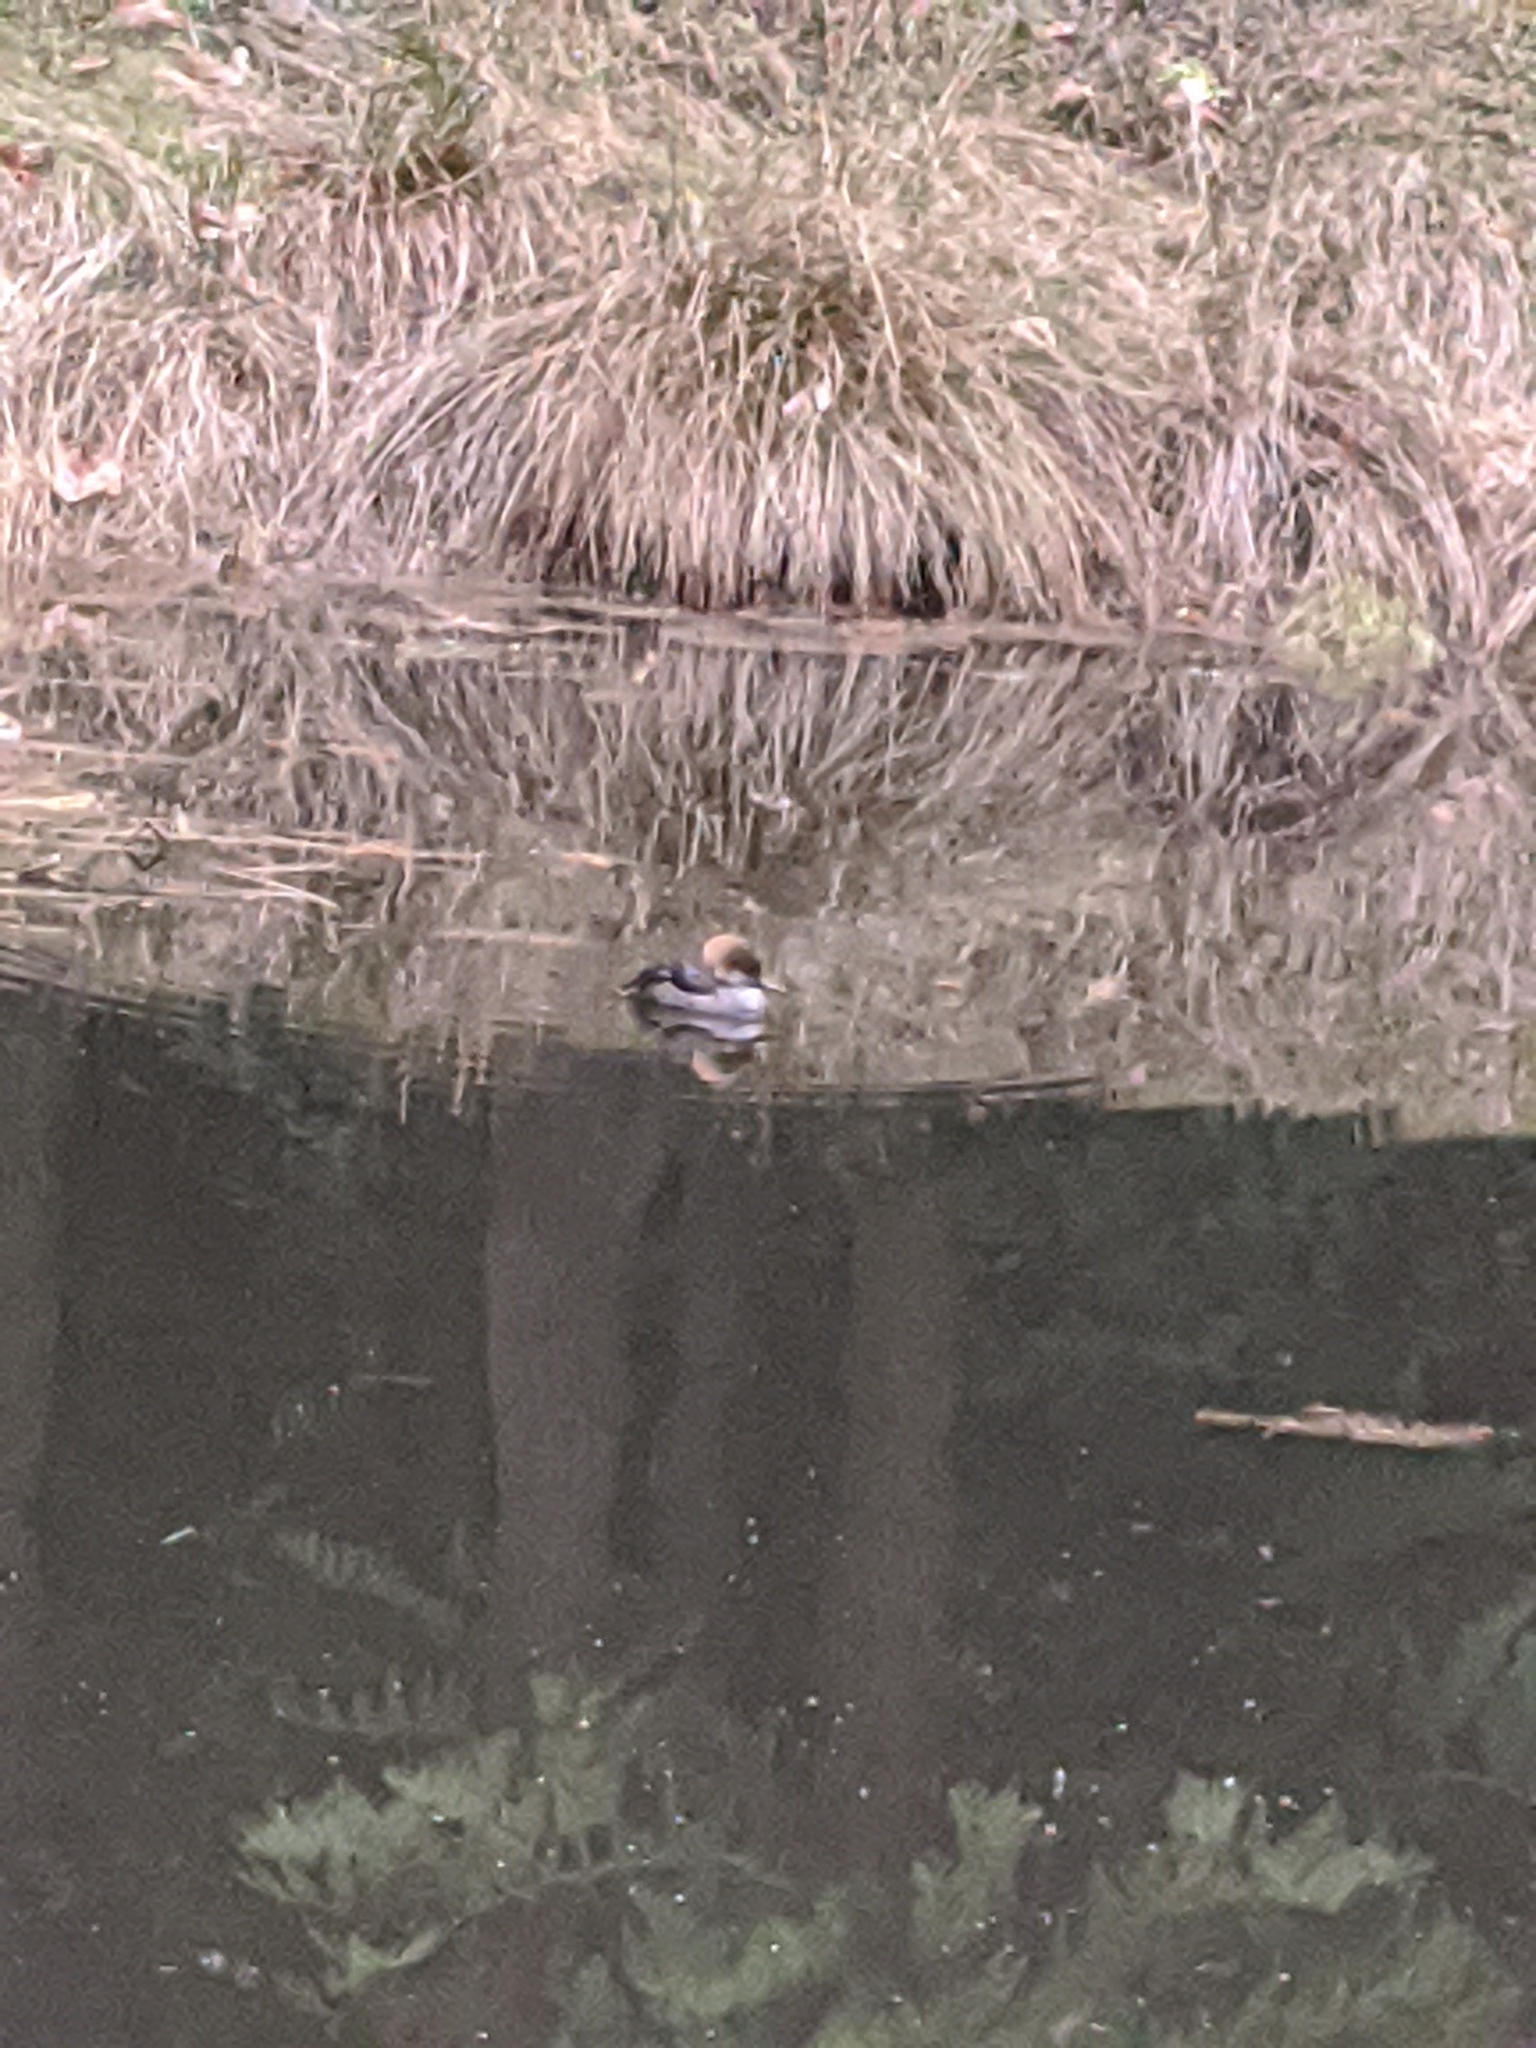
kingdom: Animalia
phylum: Chordata
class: Aves
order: Anseriformes
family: Anatidae
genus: Lophodytes
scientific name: Lophodytes cucullatus
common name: Hooded merganser
